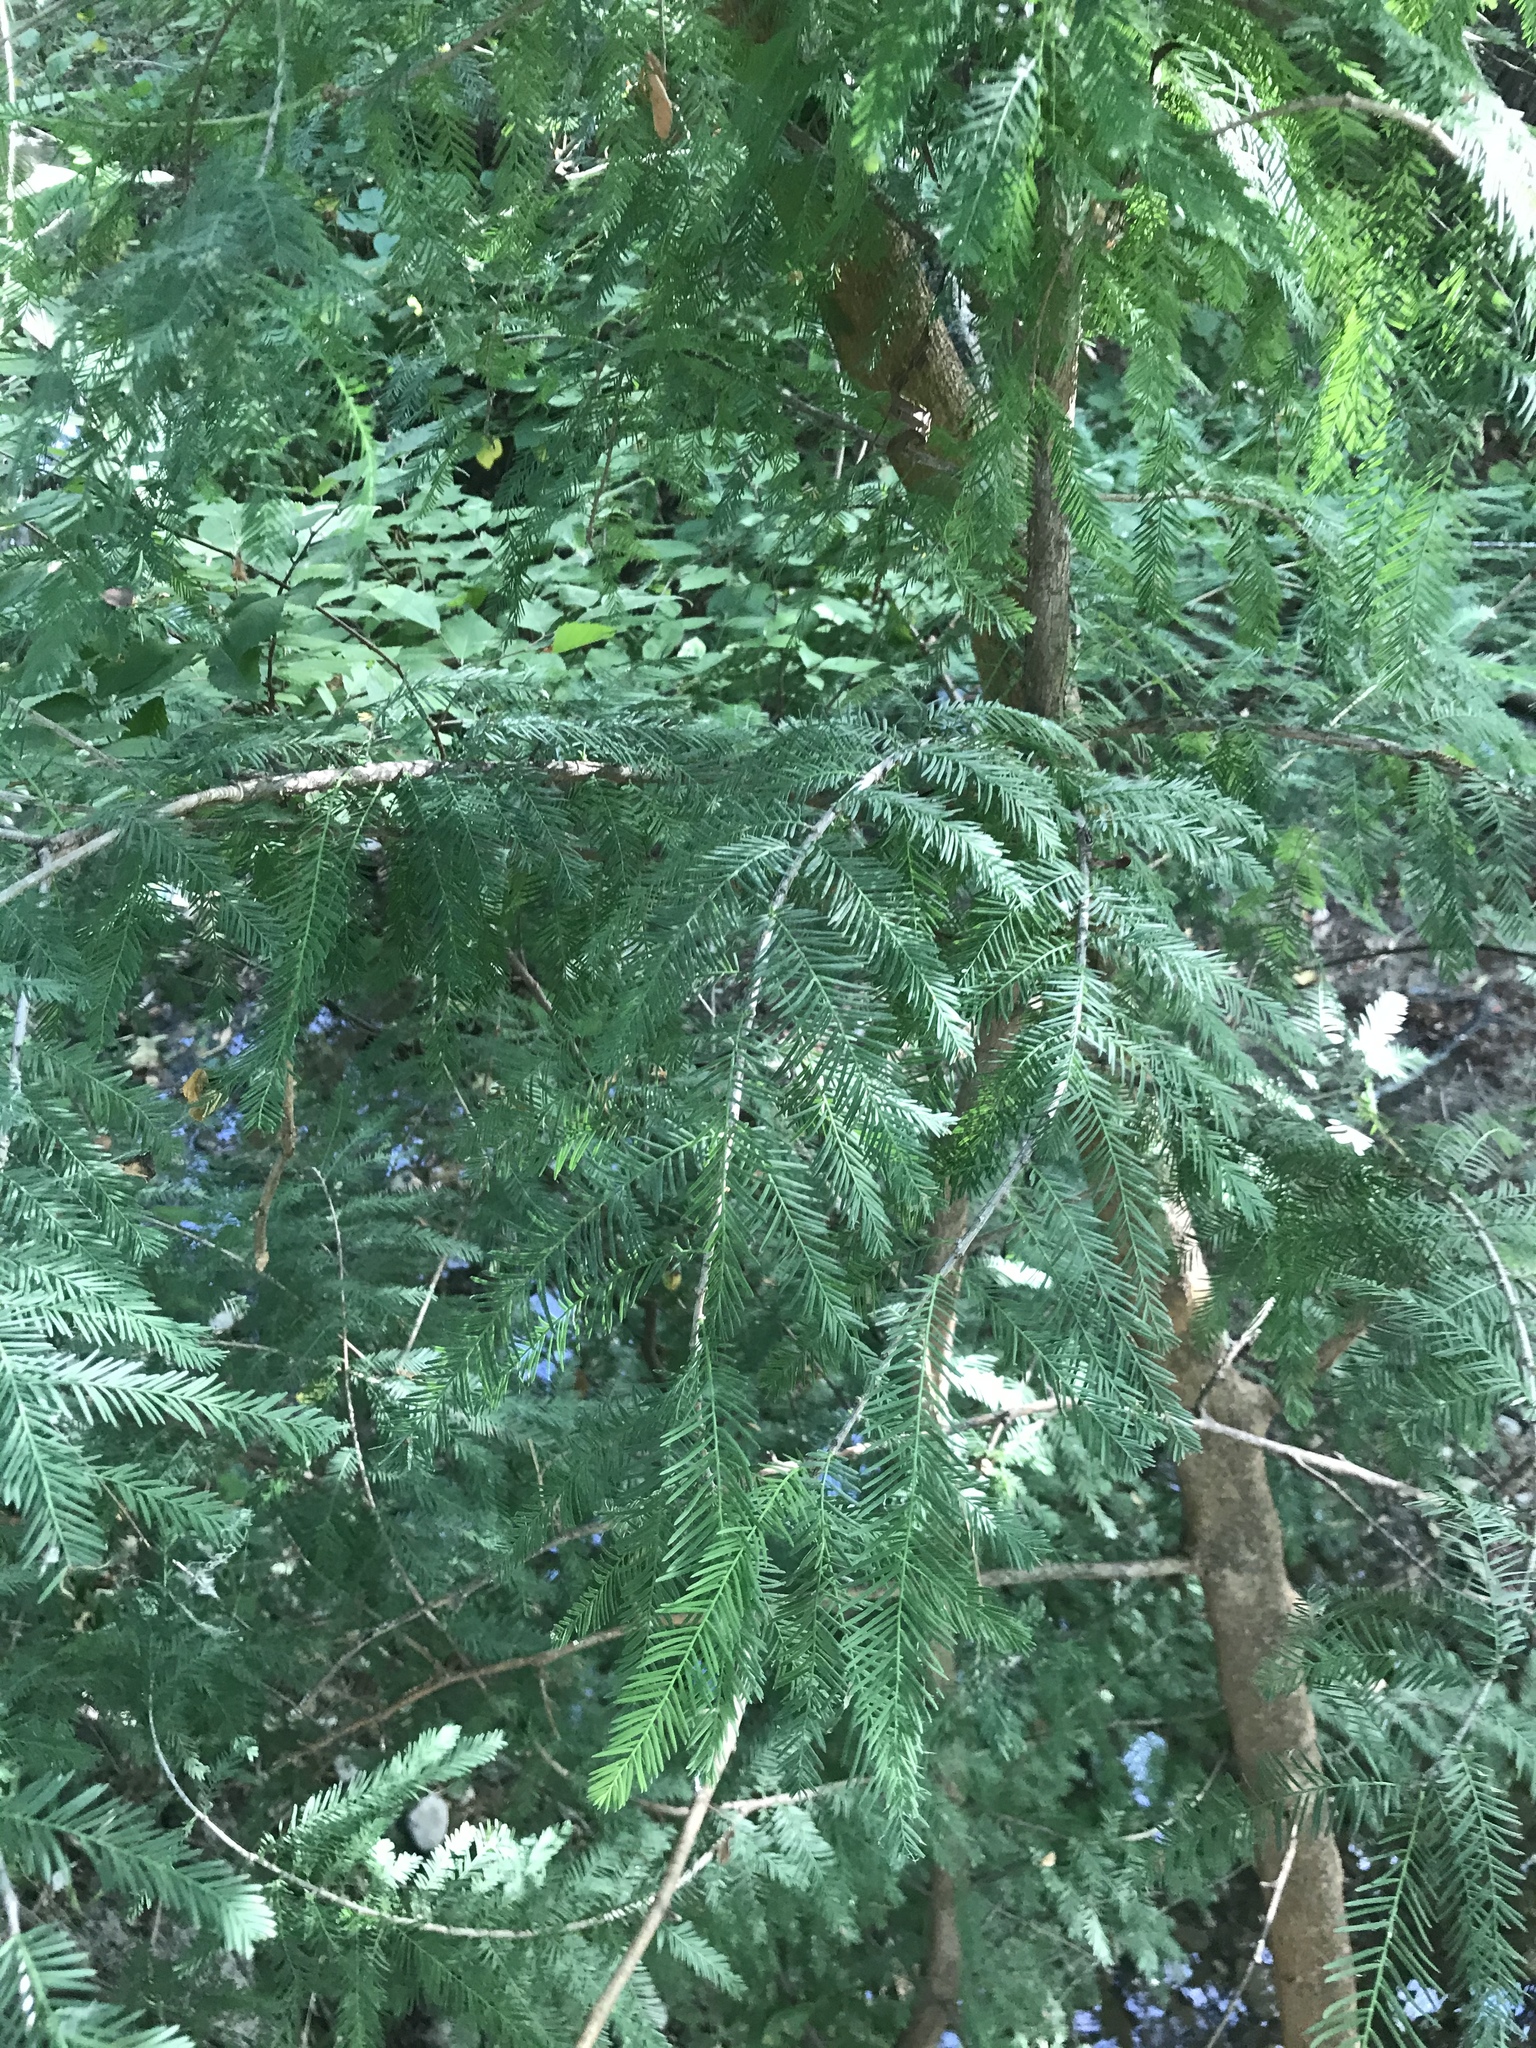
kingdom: Plantae
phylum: Tracheophyta
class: Pinopsida
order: Pinales
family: Cupressaceae
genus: Taxodium
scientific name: Taxodium distichum
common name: Bald cypress
